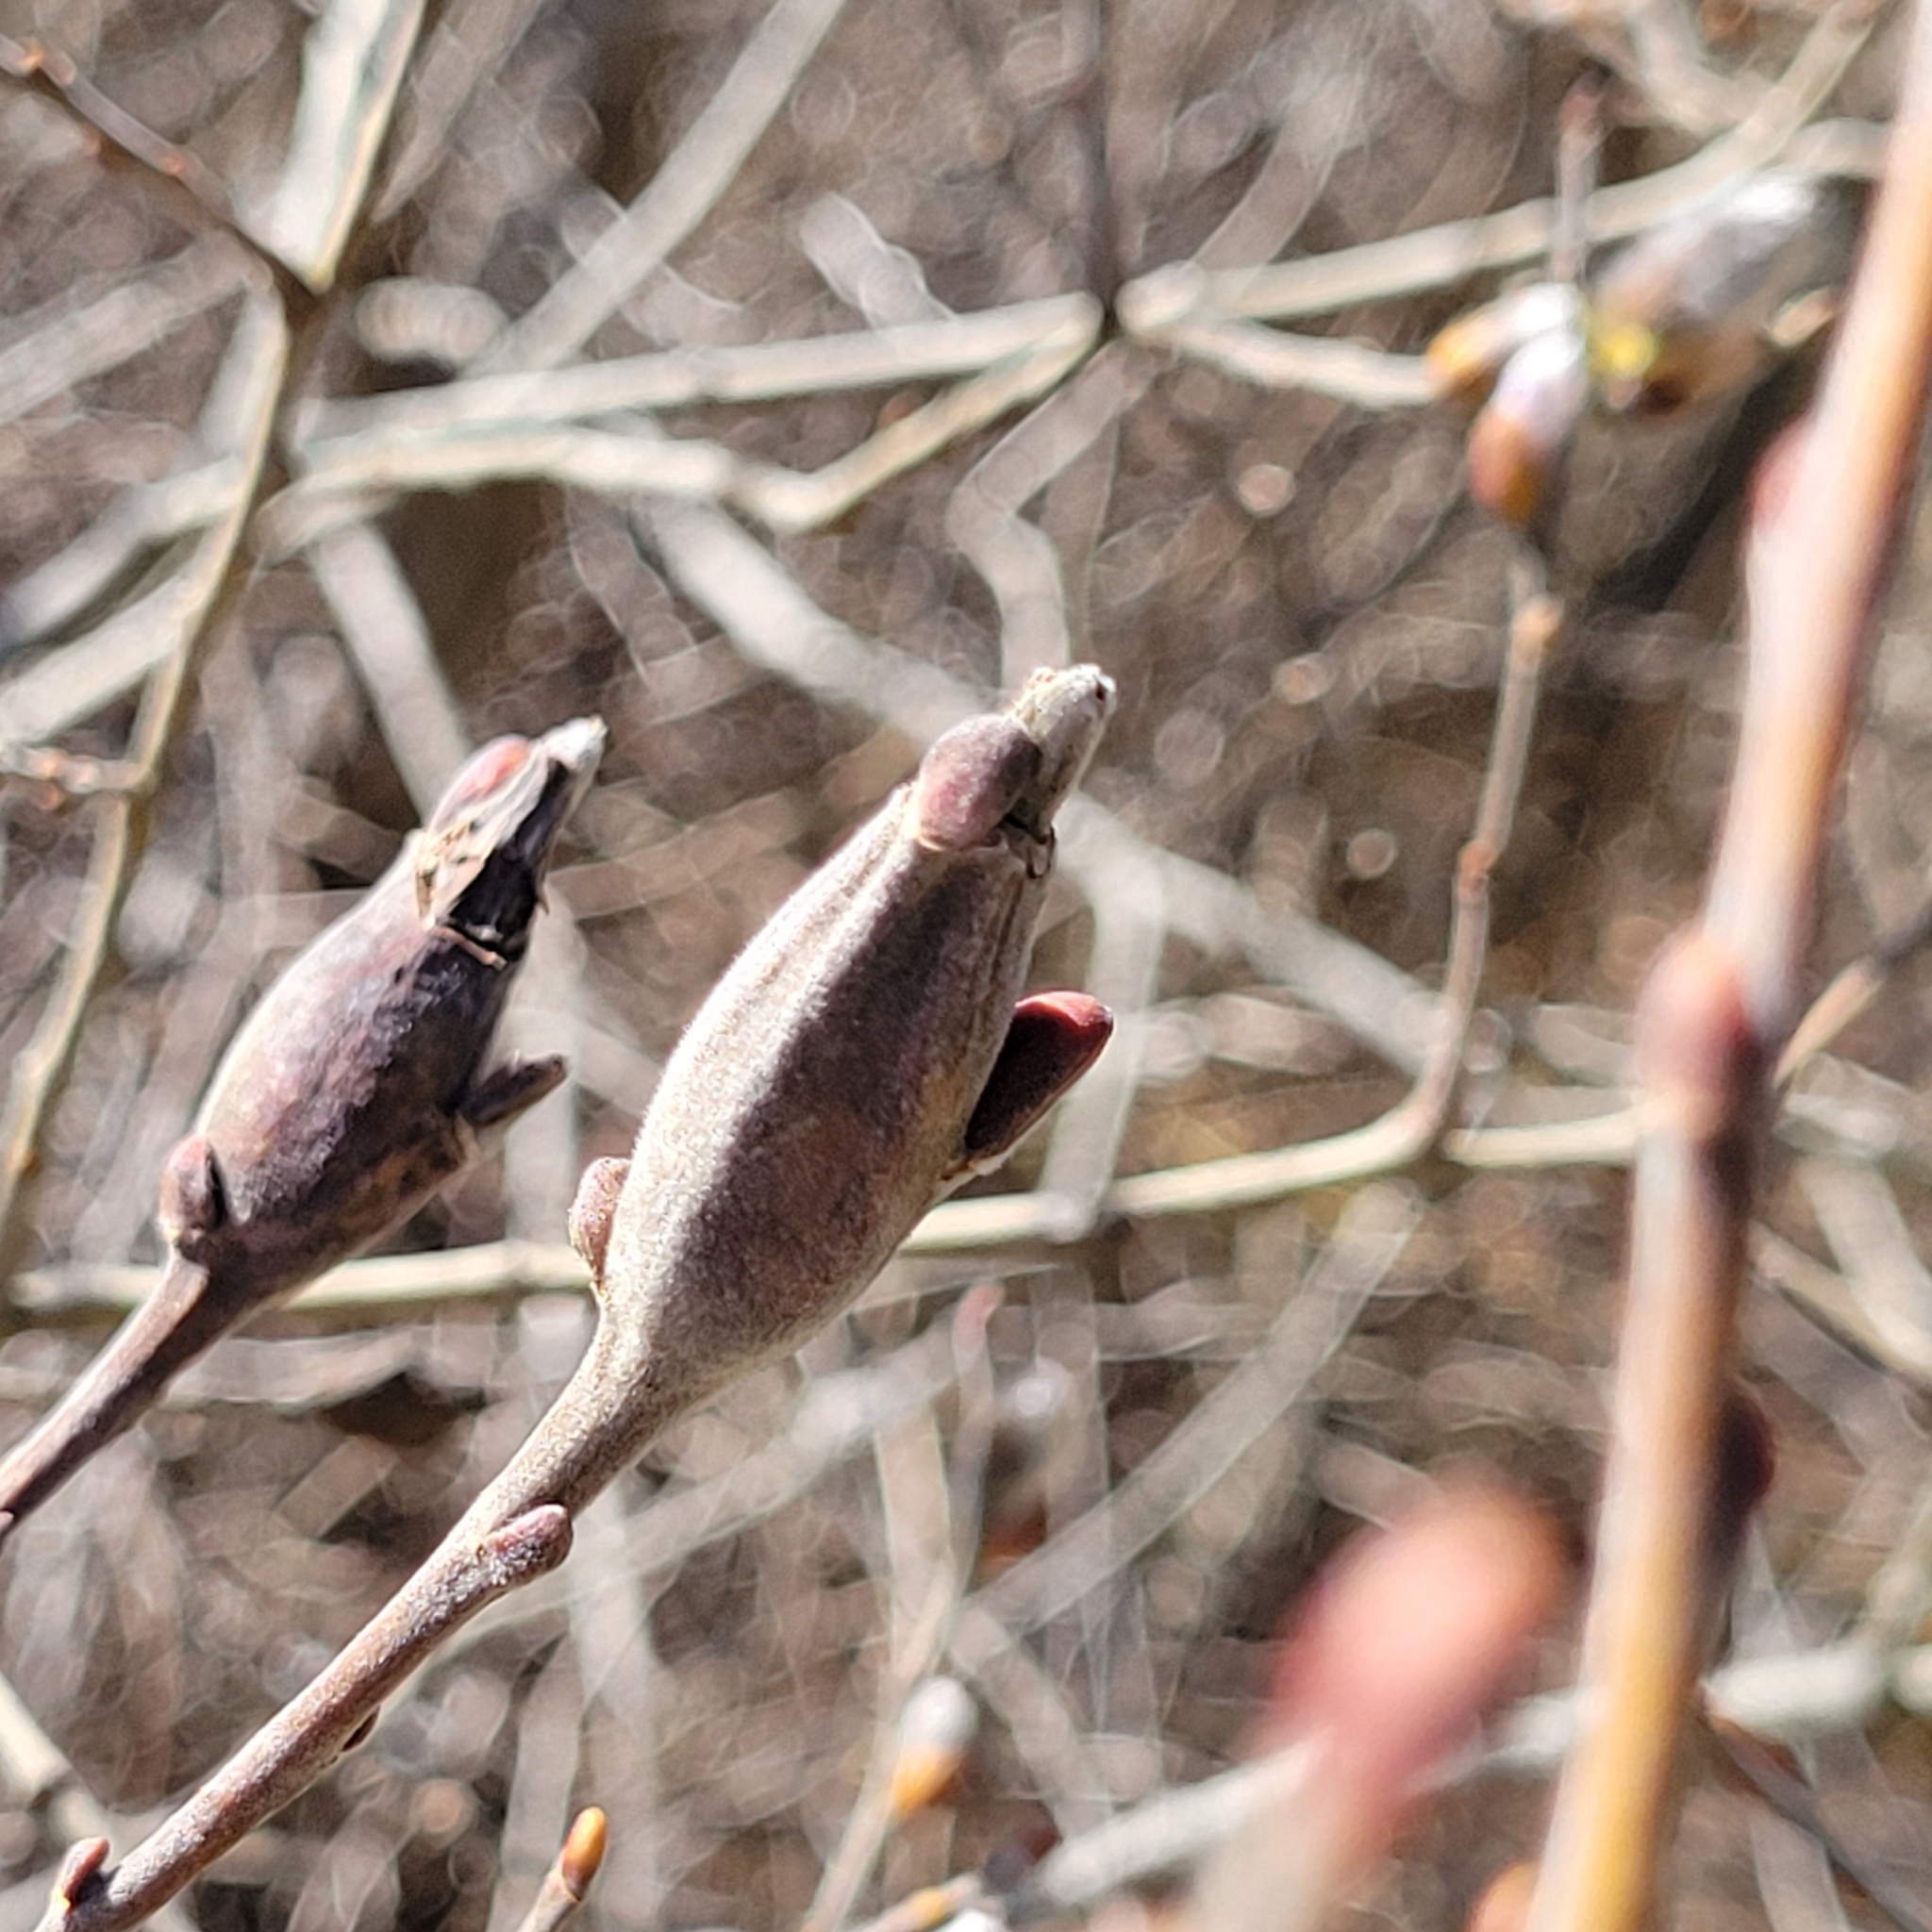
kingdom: Animalia
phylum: Arthropoda
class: Insecta
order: Diptera
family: Cecidomyiidae
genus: Thecodiplosis
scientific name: Thecodiplosis pinirigidae
